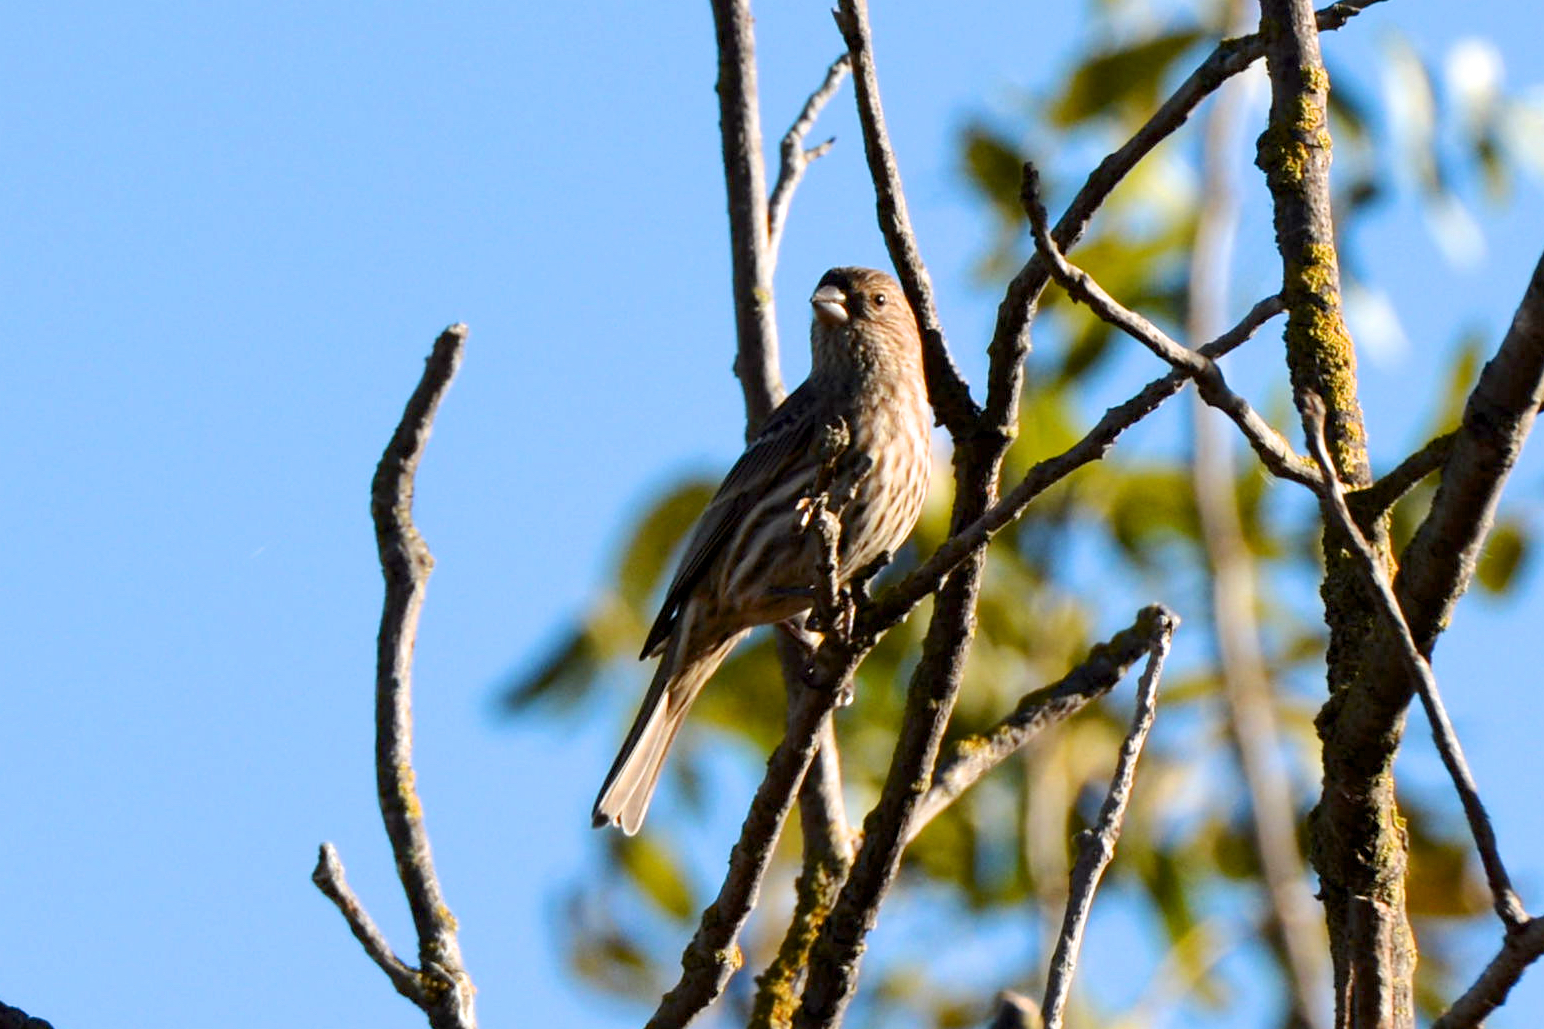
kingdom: Animalia
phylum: Chordata
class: Aves
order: Passeriformes
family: Fringillidae
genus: Haemorhous
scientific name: Haemorhous mexicanus
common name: House finch
